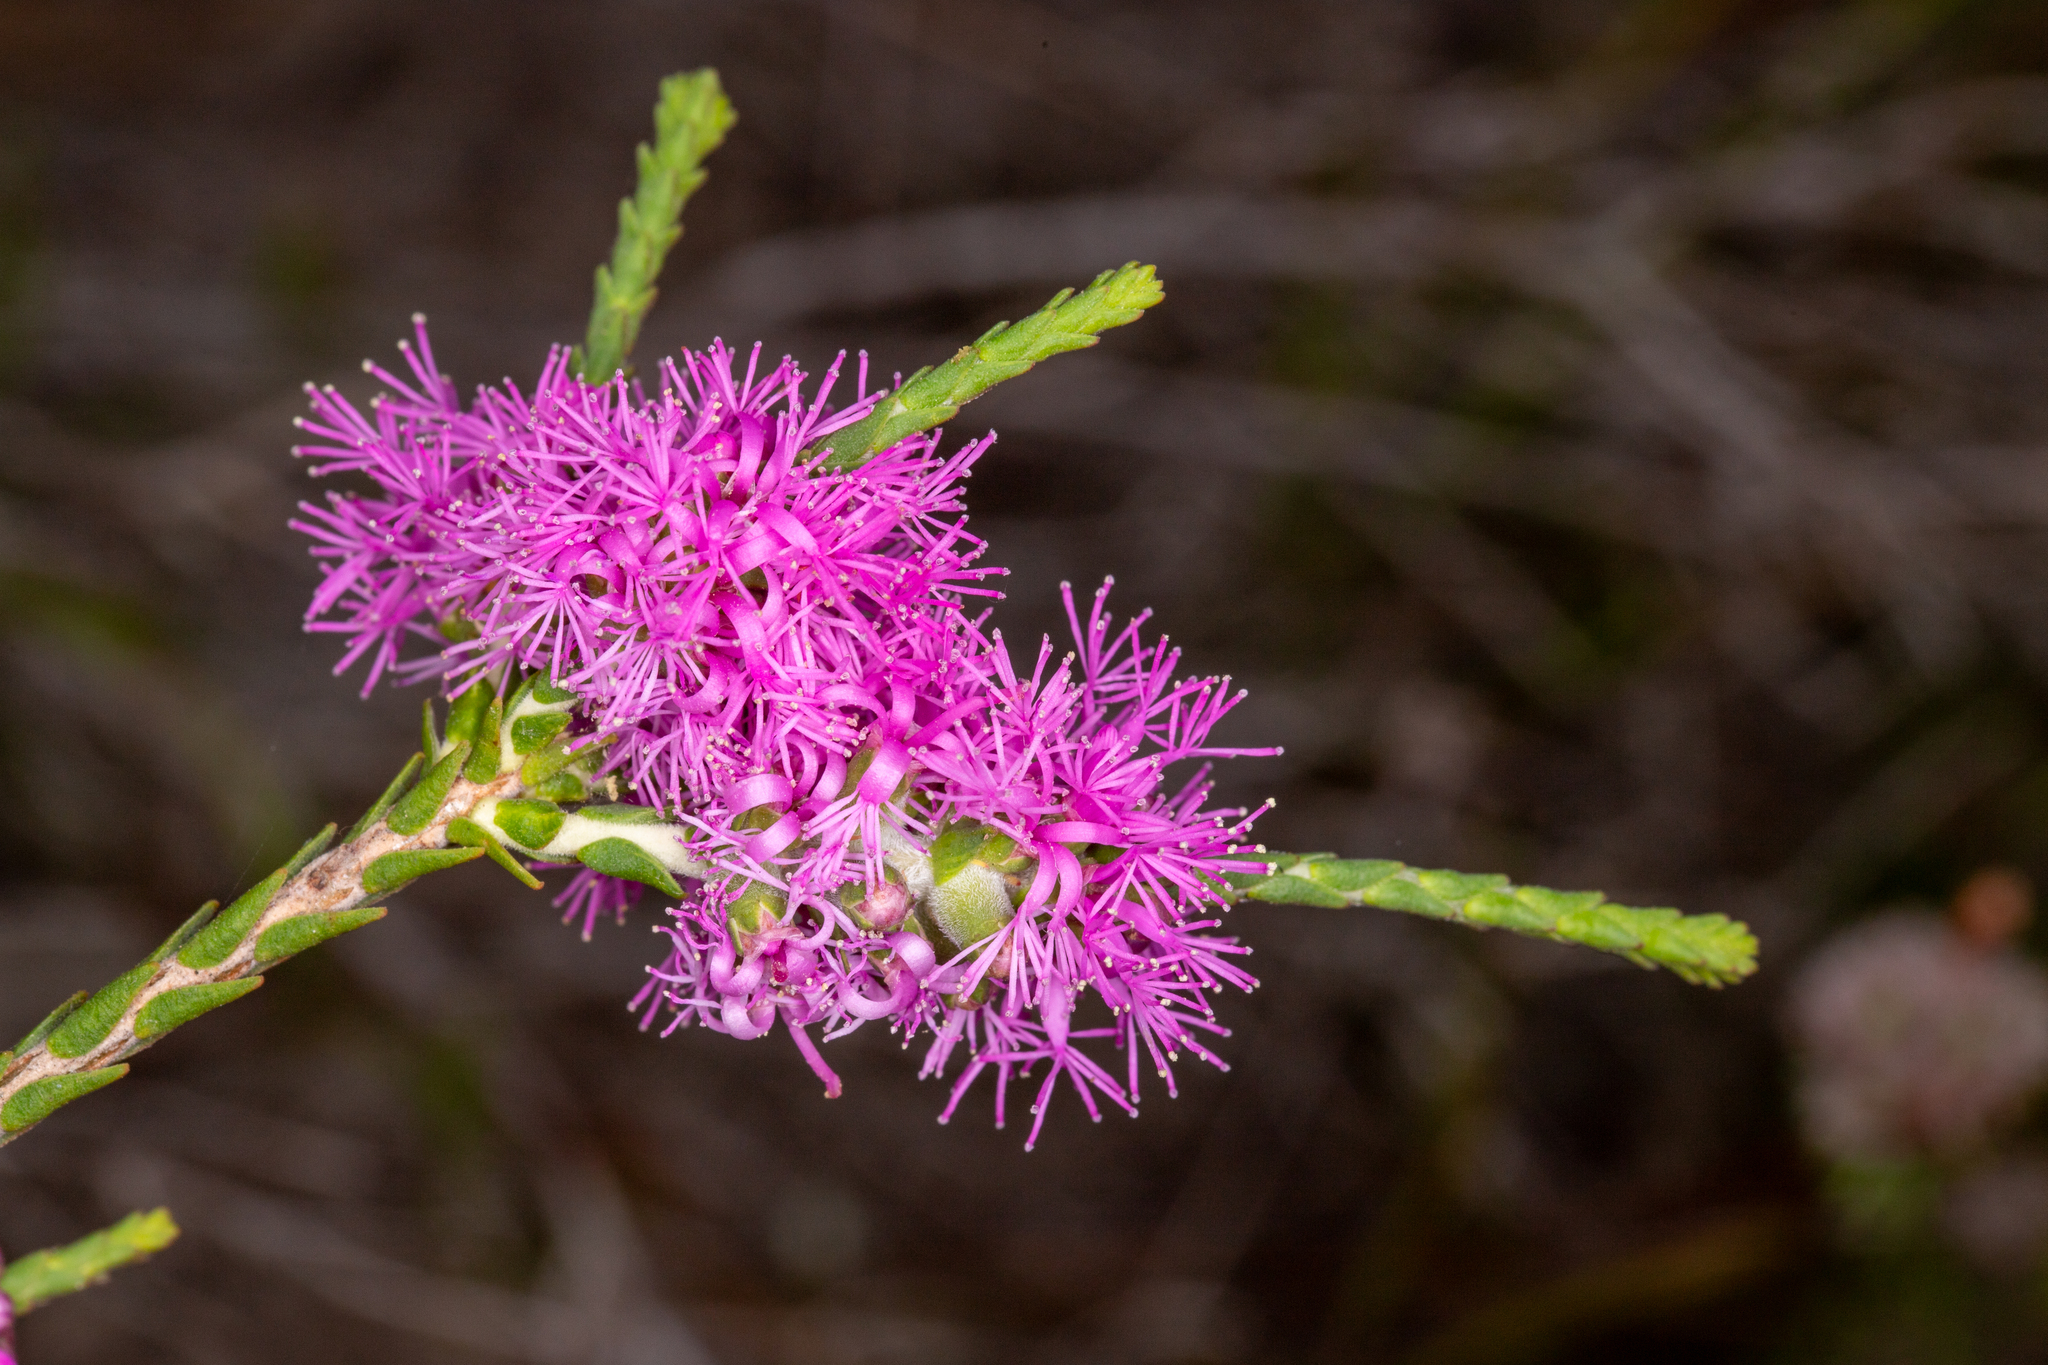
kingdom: Plantae
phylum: Tracheophyta
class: Magnoliopsida
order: Myrtales
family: Myrtaceae
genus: Melaleuca
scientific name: Melaleuca inops
